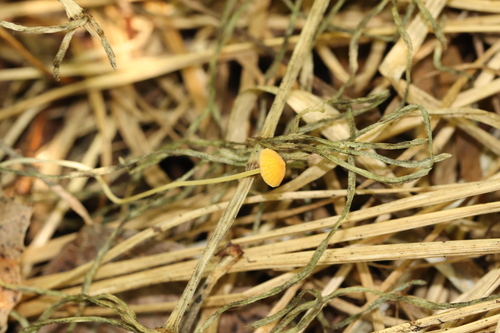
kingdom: Fungi
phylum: Basidiomycota
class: Agaricomycetes
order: Agaricales
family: Mycenaceae
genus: Mycena
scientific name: Mycena acicula
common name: Orange bonnet
